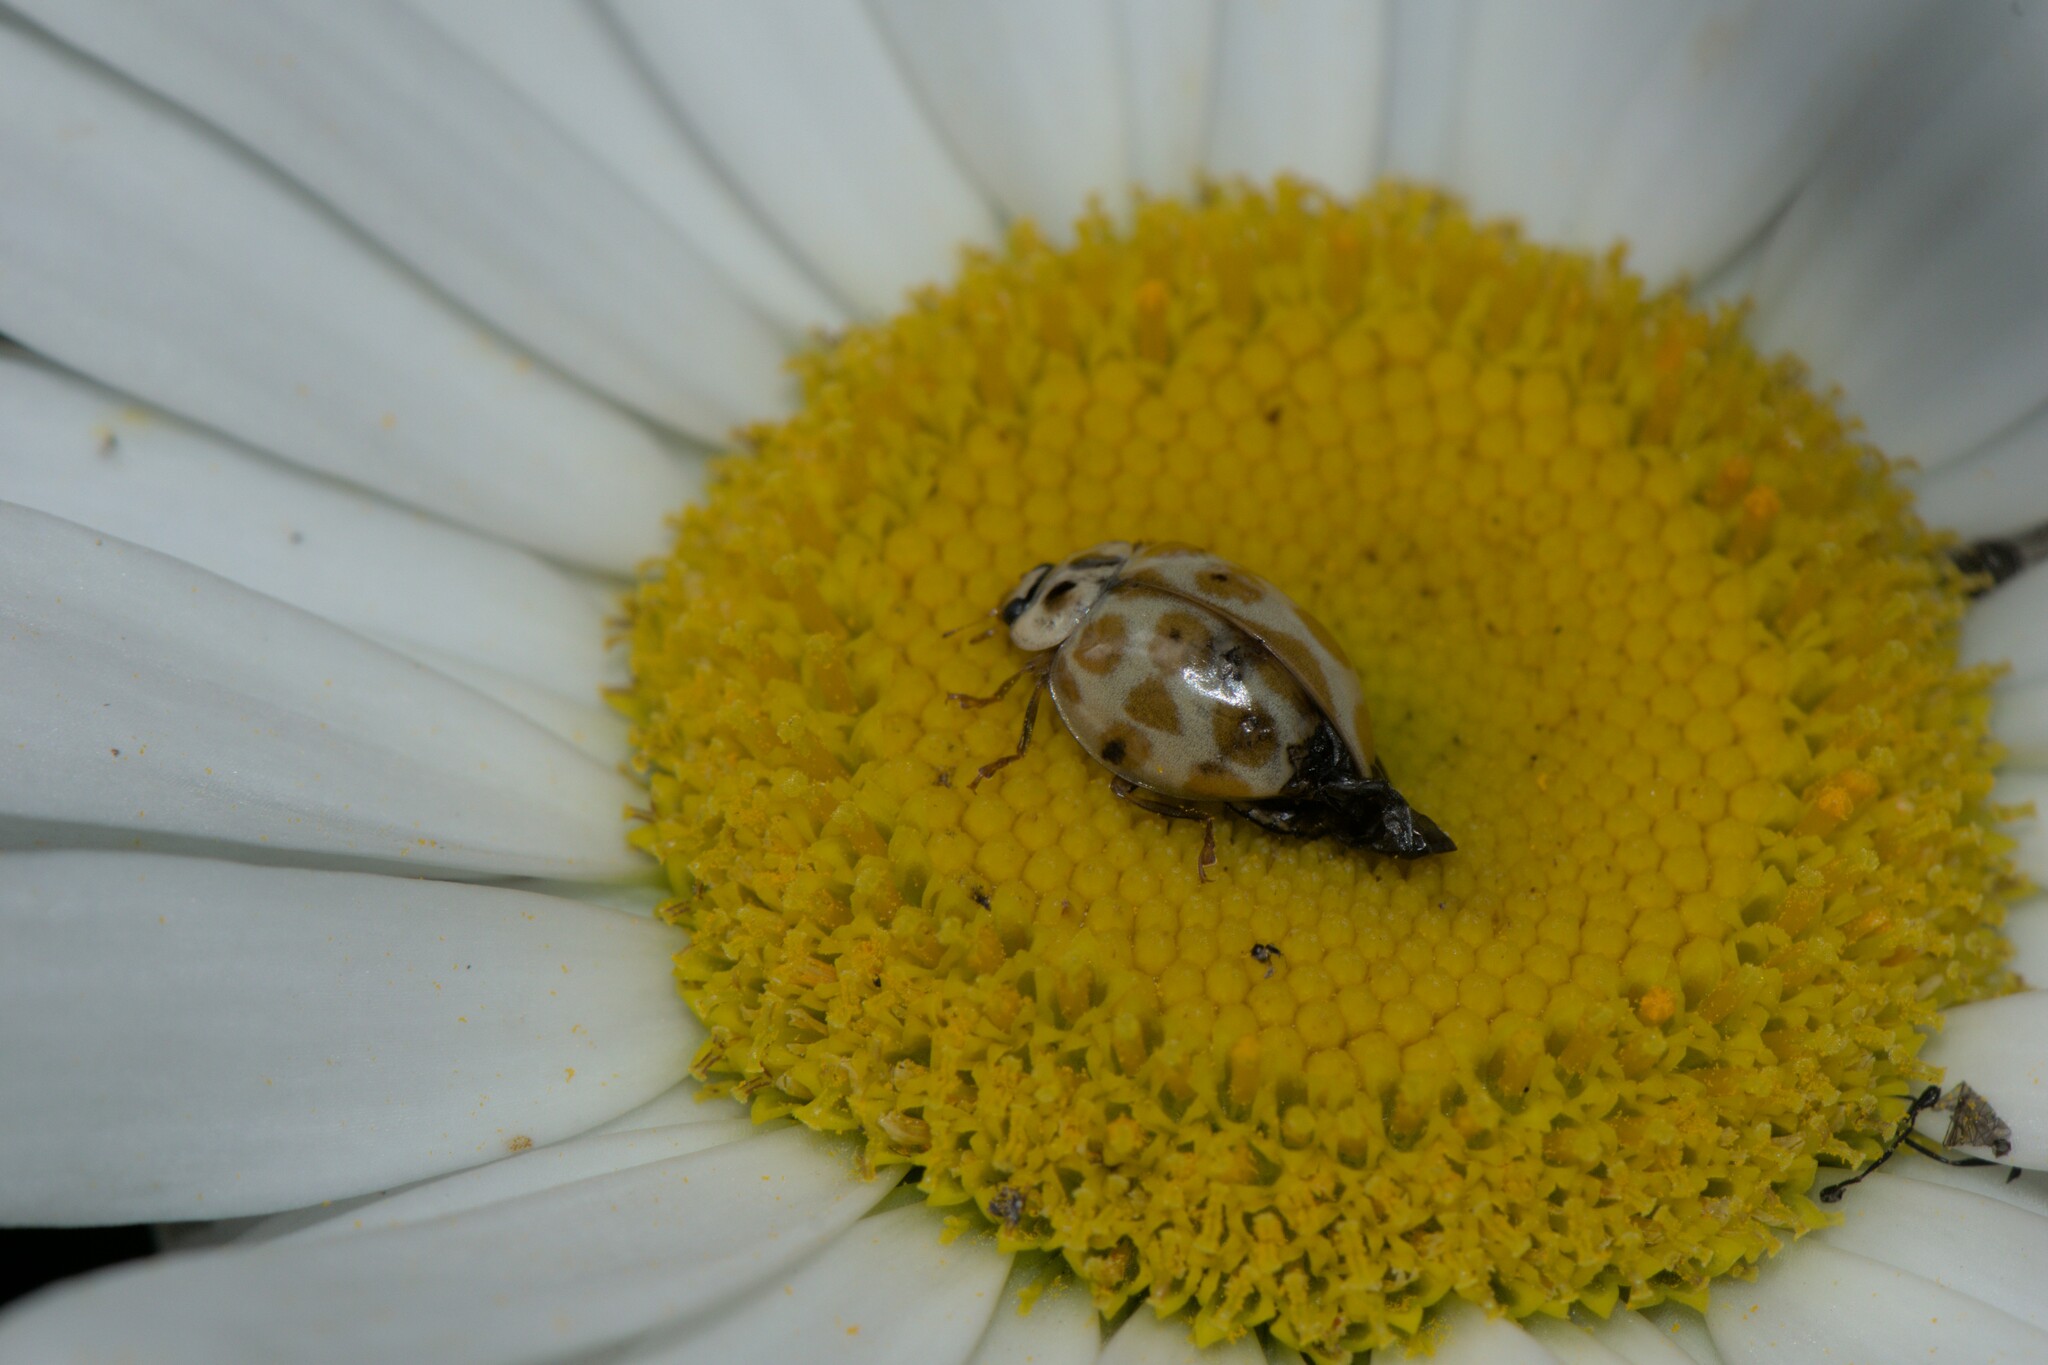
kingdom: Animalia
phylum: Arthropoda
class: Insecta
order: Coleoptera
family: Coccinellidae
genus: Harmonia
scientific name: Harmonia eucharis
